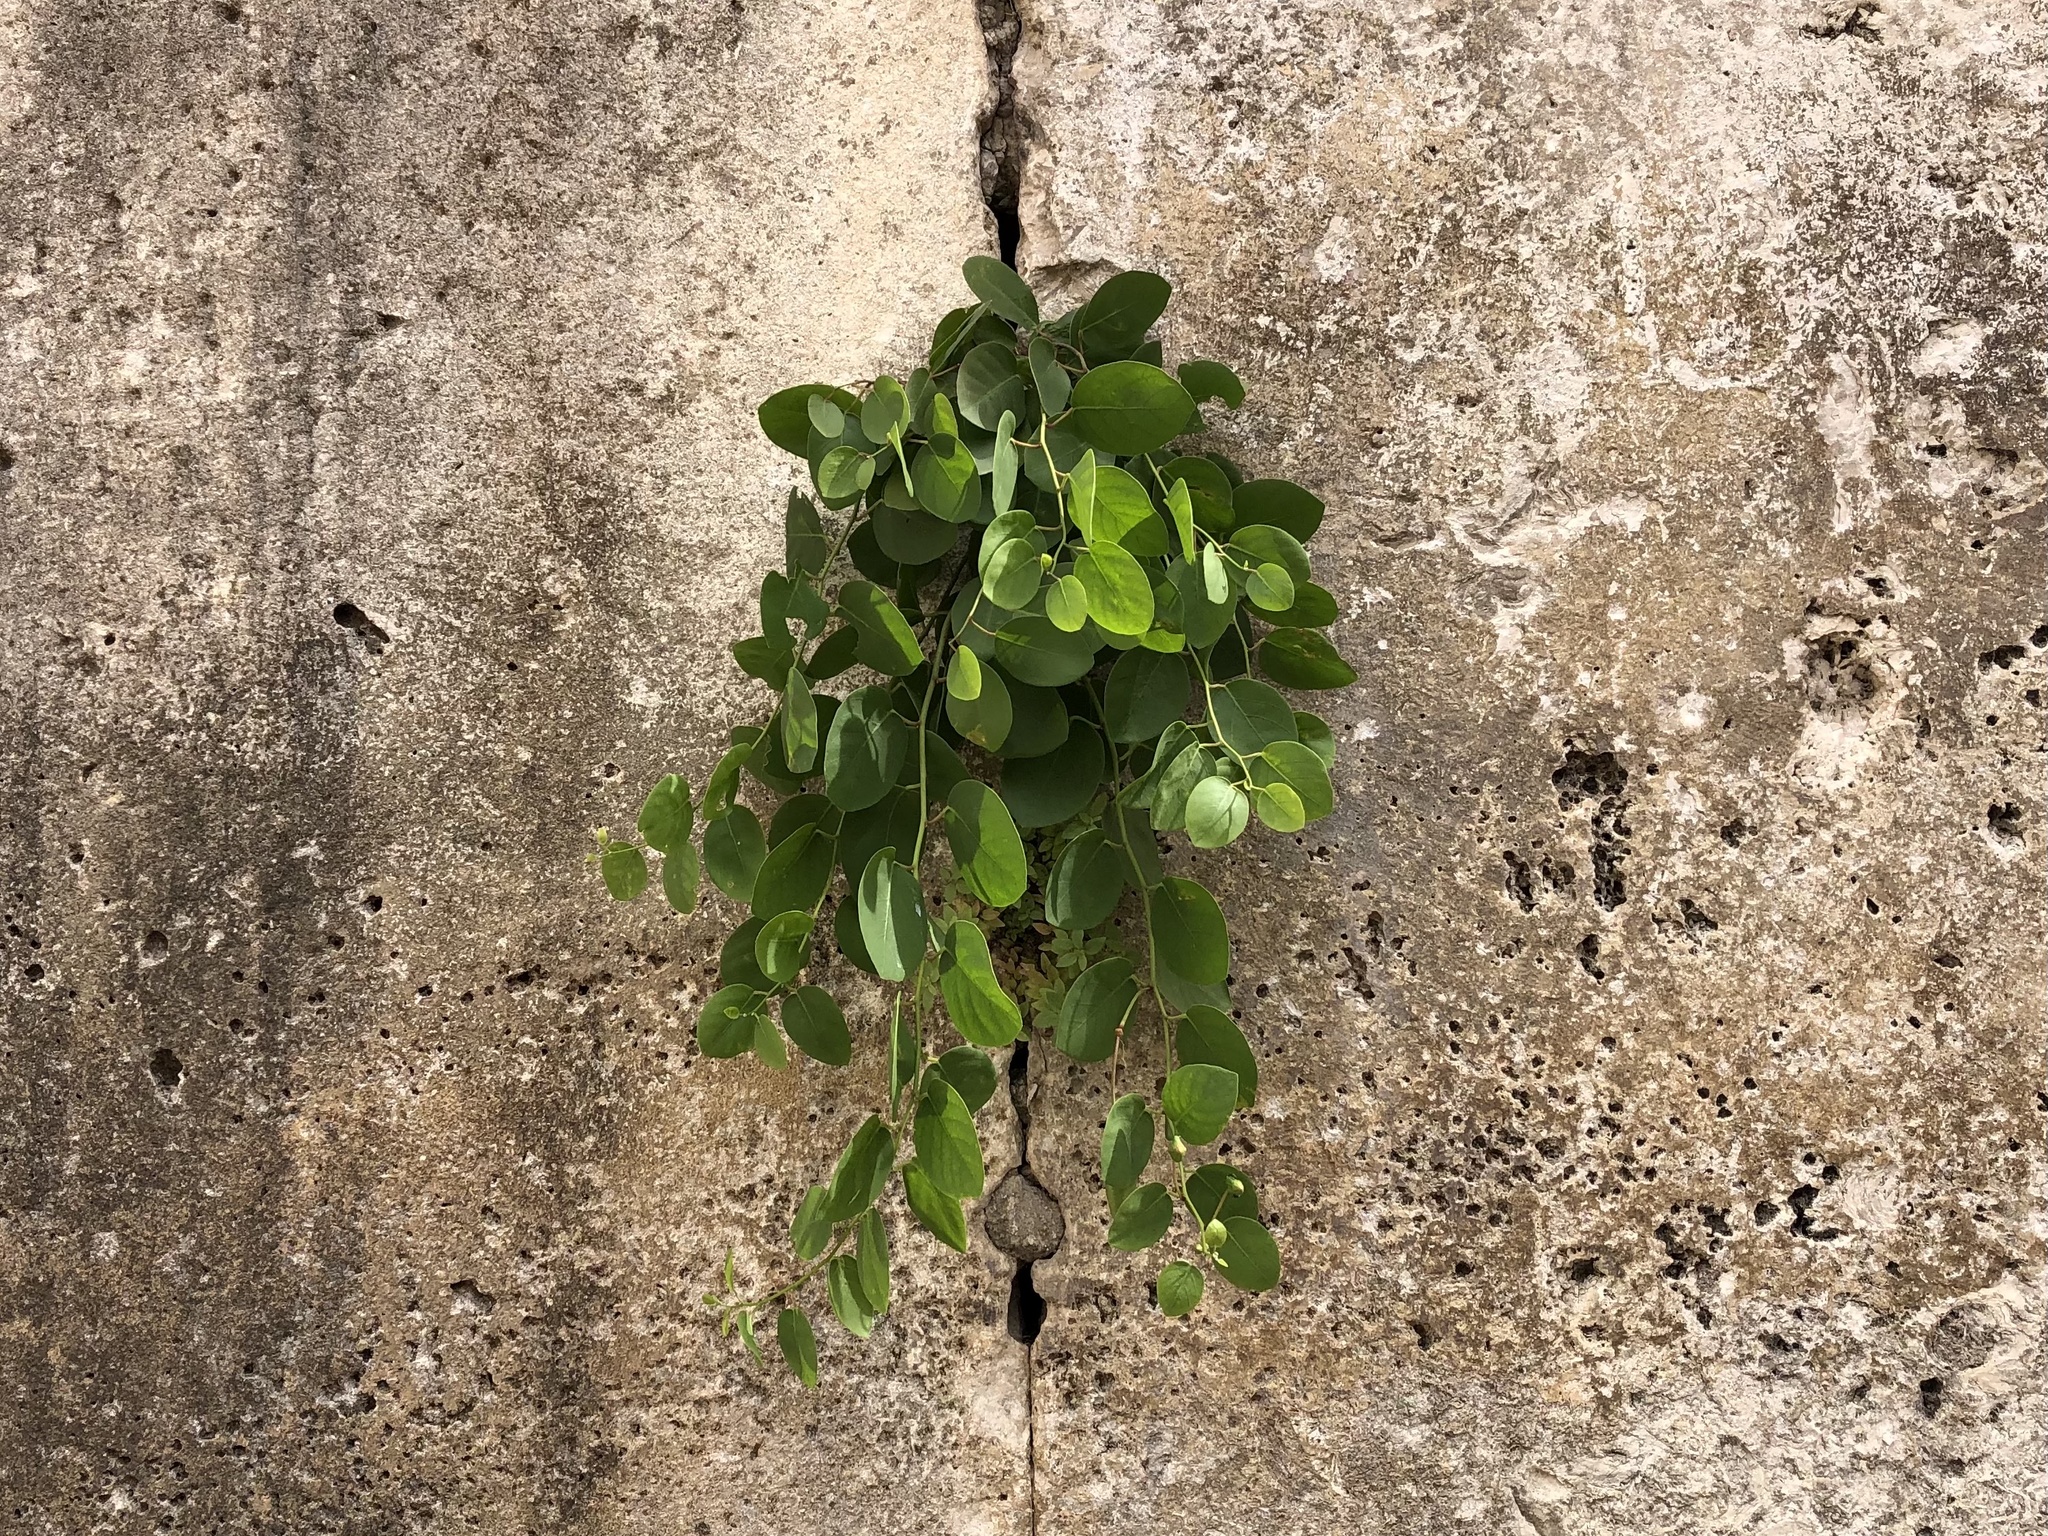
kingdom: Plantae
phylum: Tracheophyta
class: Magnoliopsida
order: Brassicales
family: Capparaceae
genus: Capparis
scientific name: Capparis orientalis
